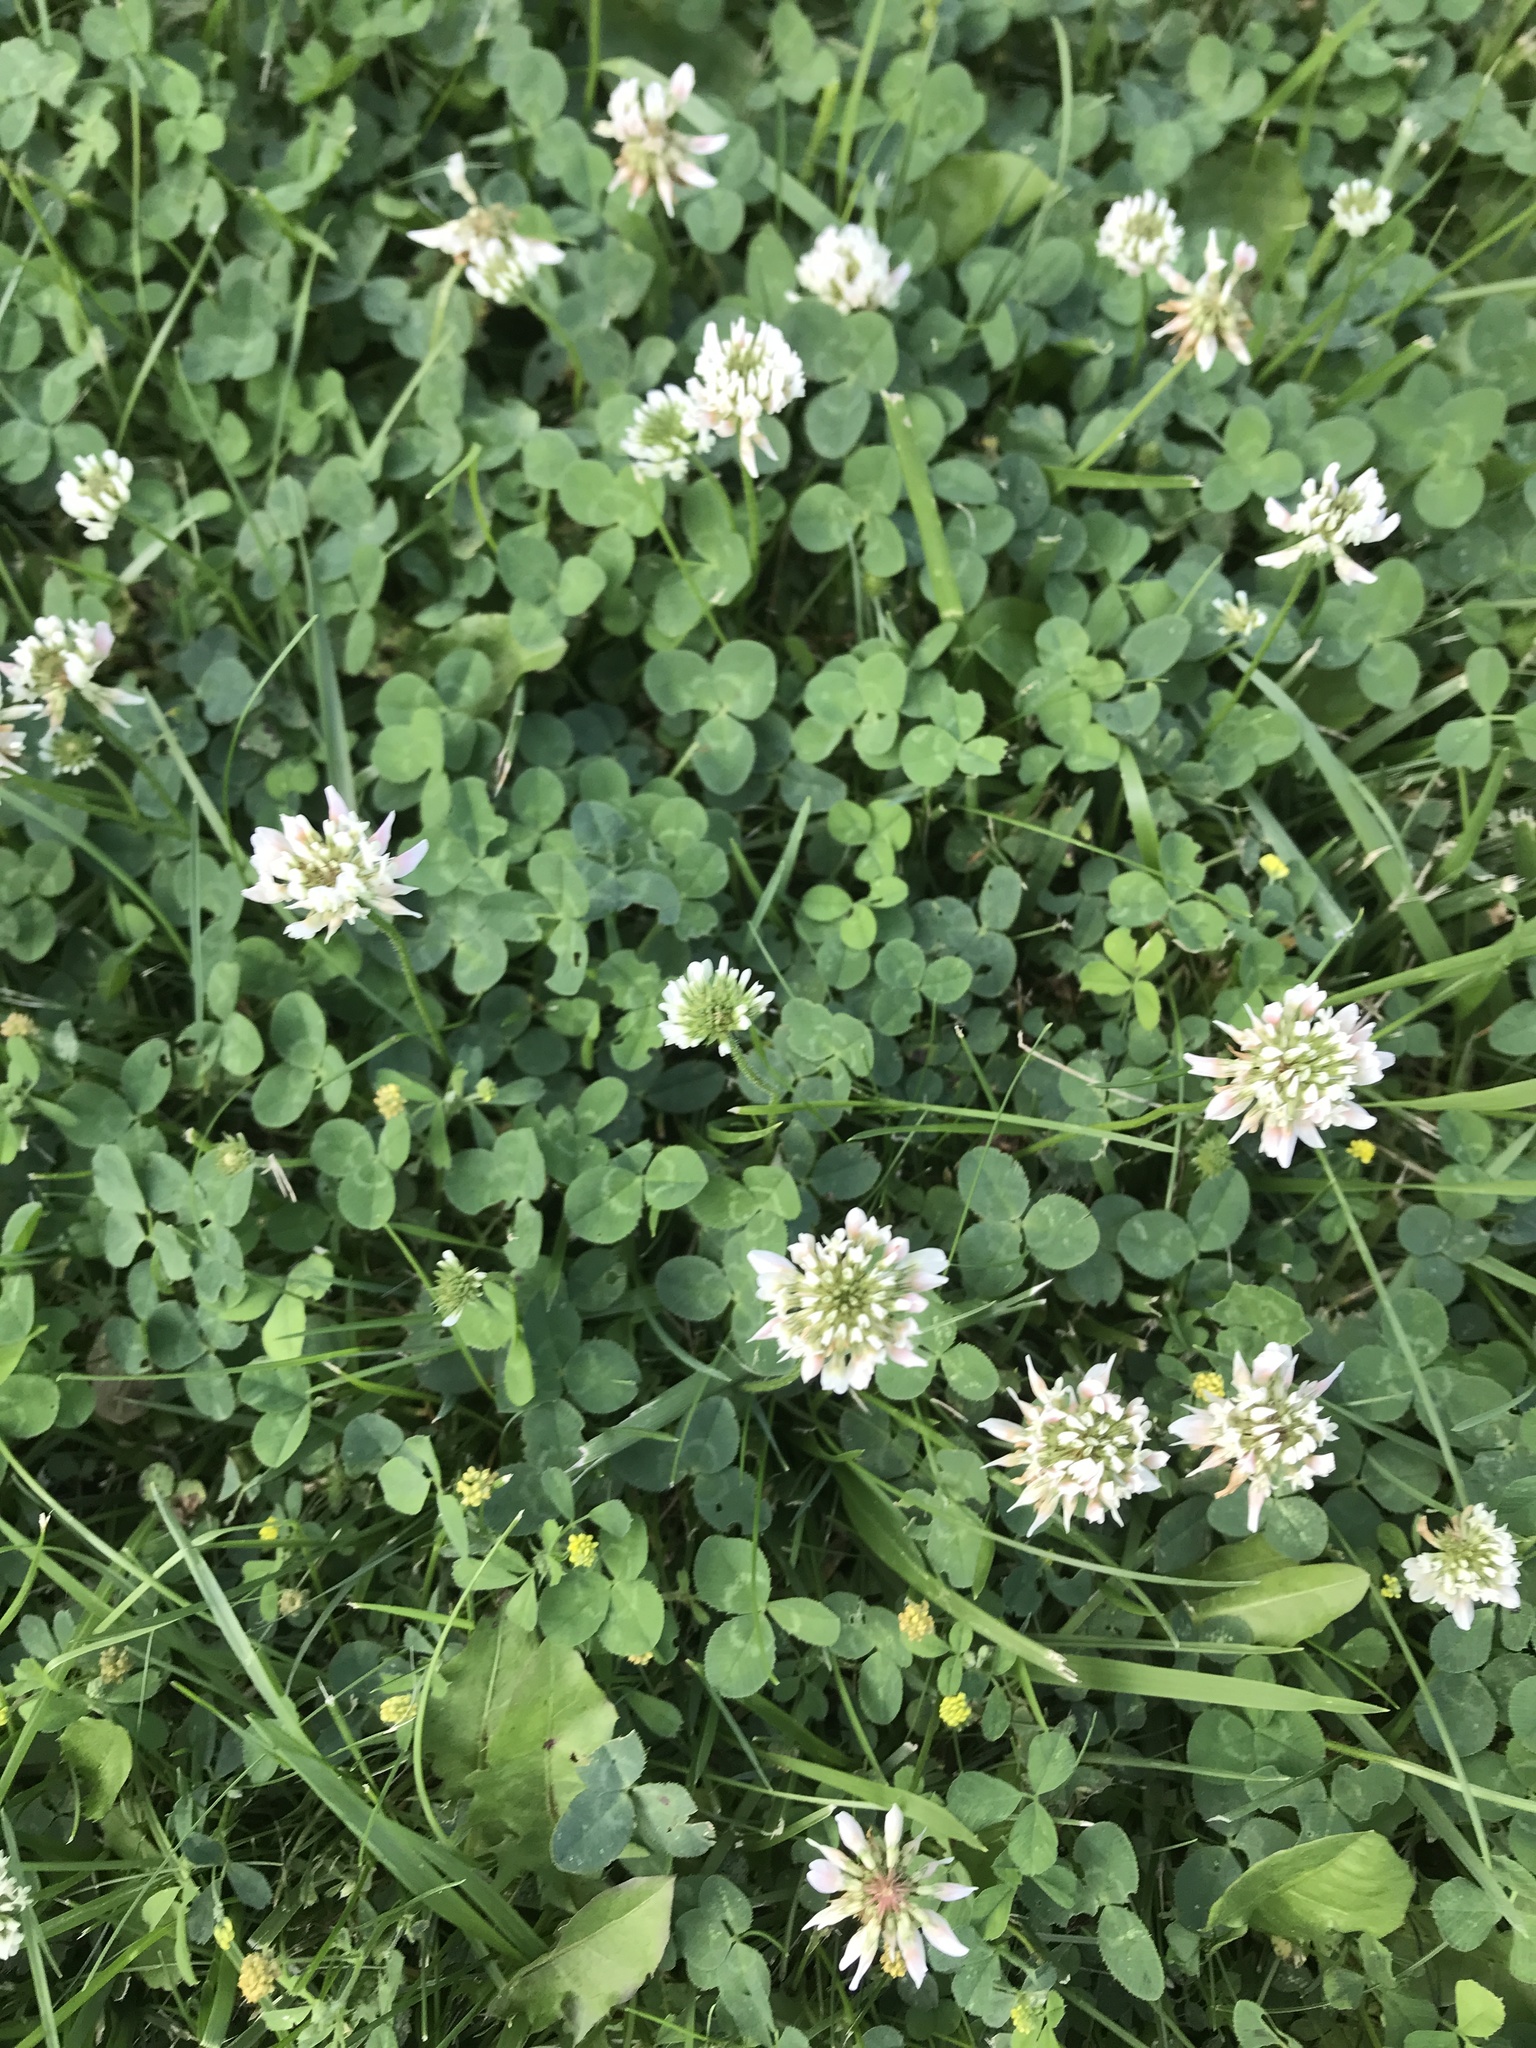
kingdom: Plantae
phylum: Tracheophyta
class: Magnoliopsida
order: Fabales
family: Fabaceae
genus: Trifolium
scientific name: Trifolium repens
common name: White clover
